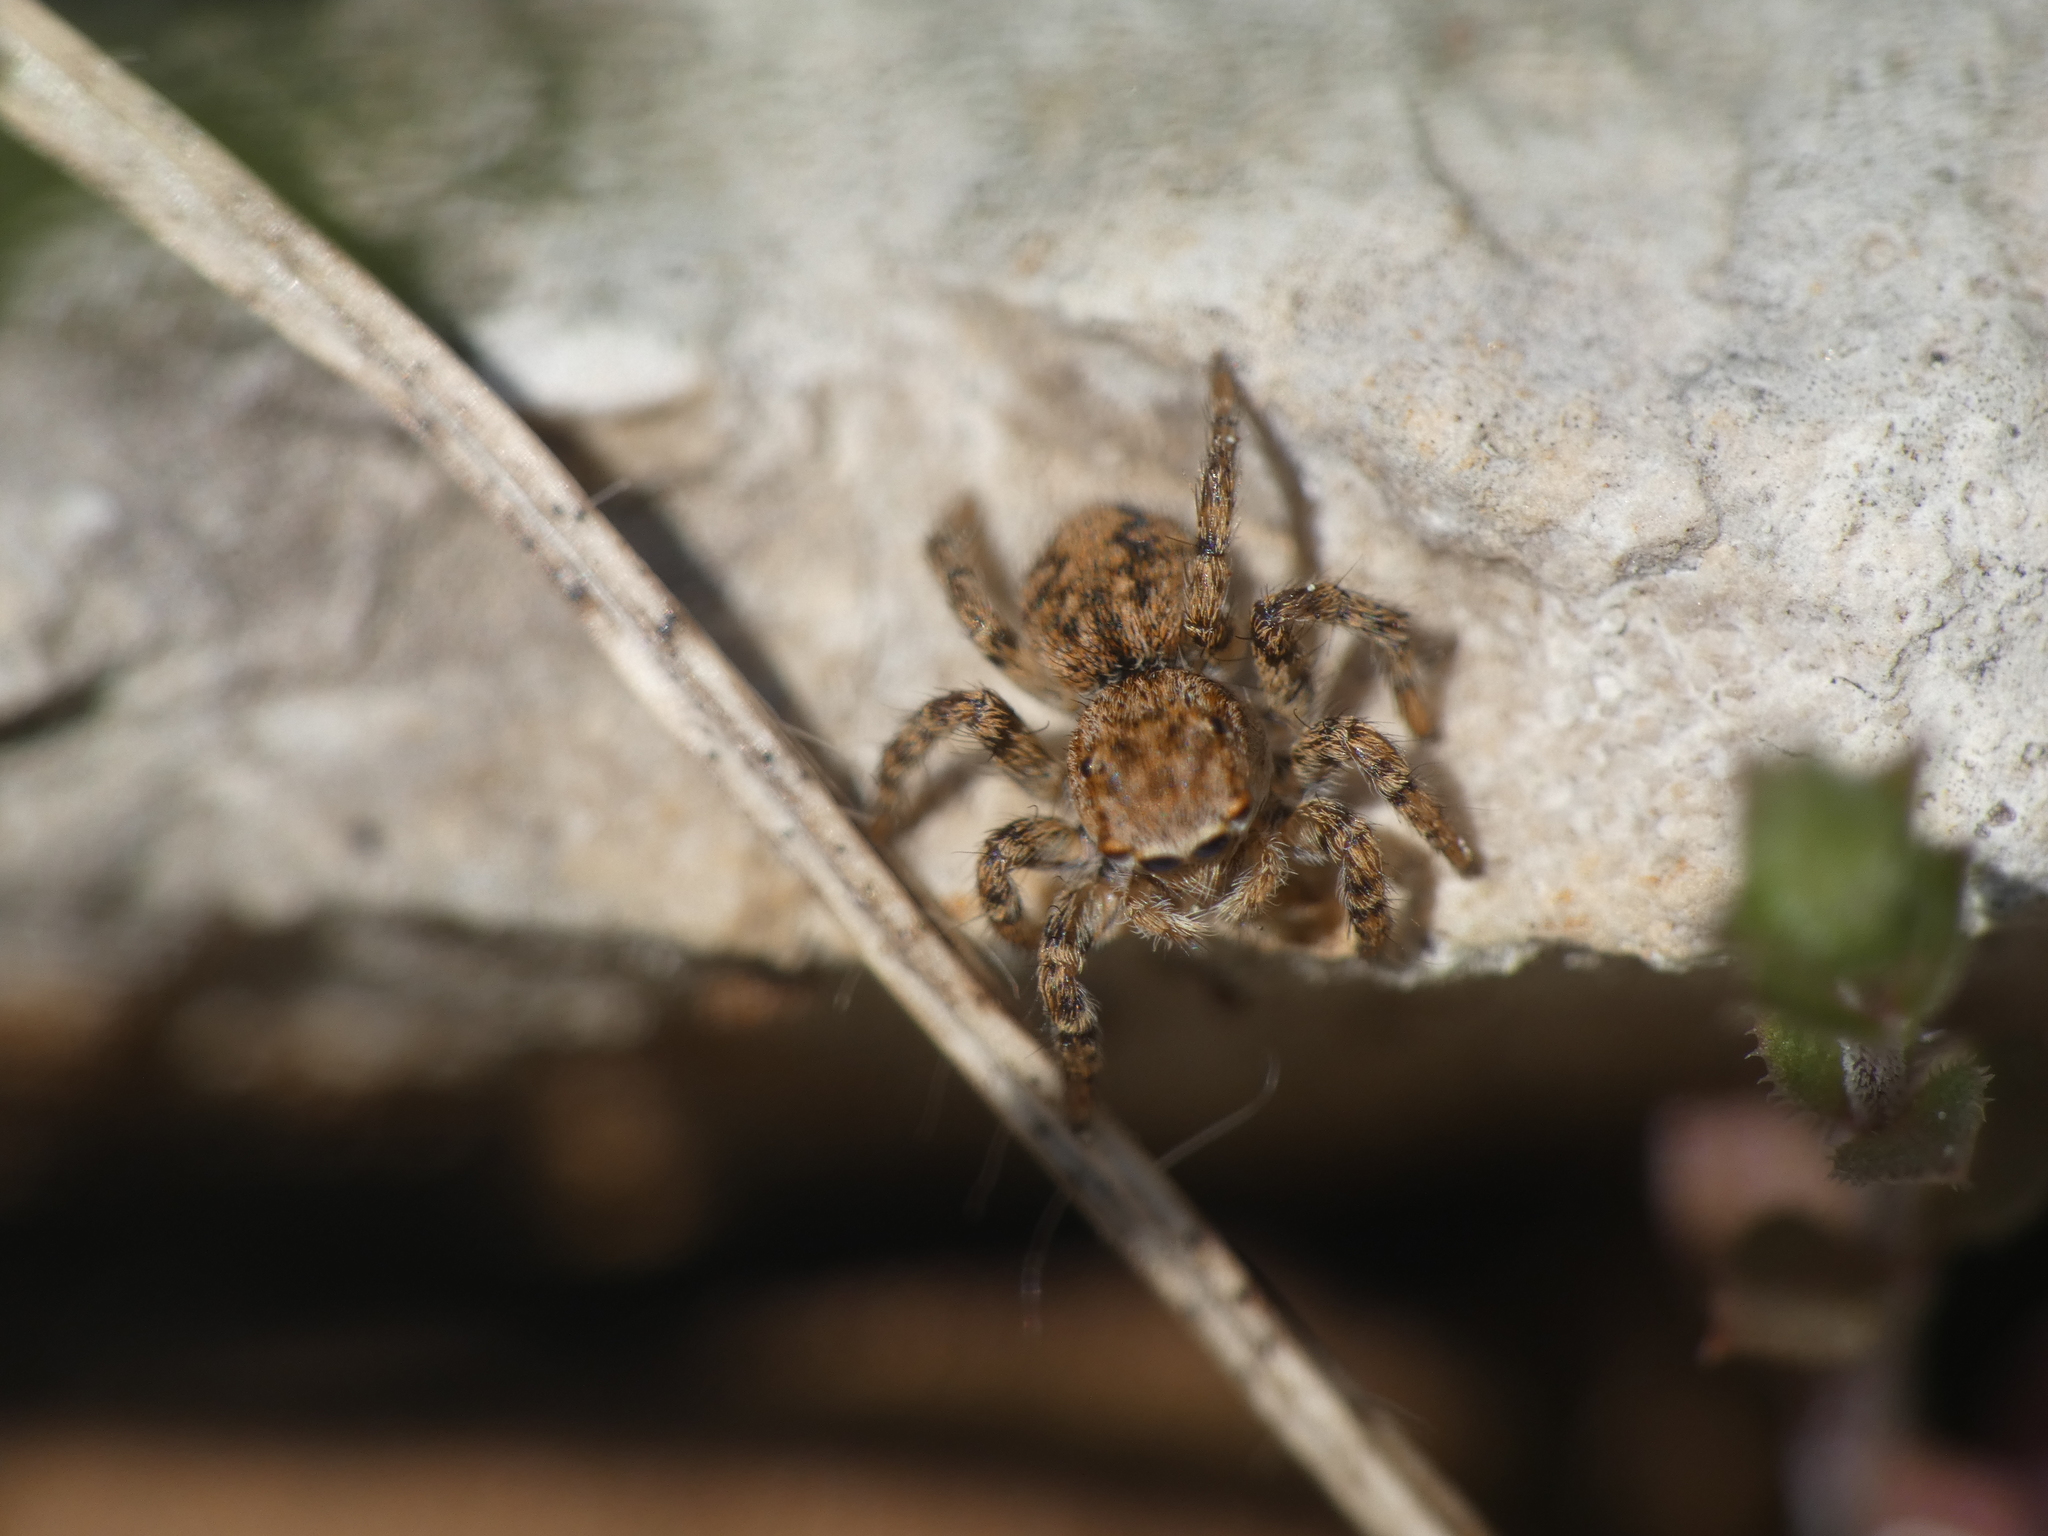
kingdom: Animalia
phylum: Arthropoda
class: Arachnida
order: Araneae
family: Salticidae
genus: Aelurillus
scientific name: Aelurillus v-insignitus
